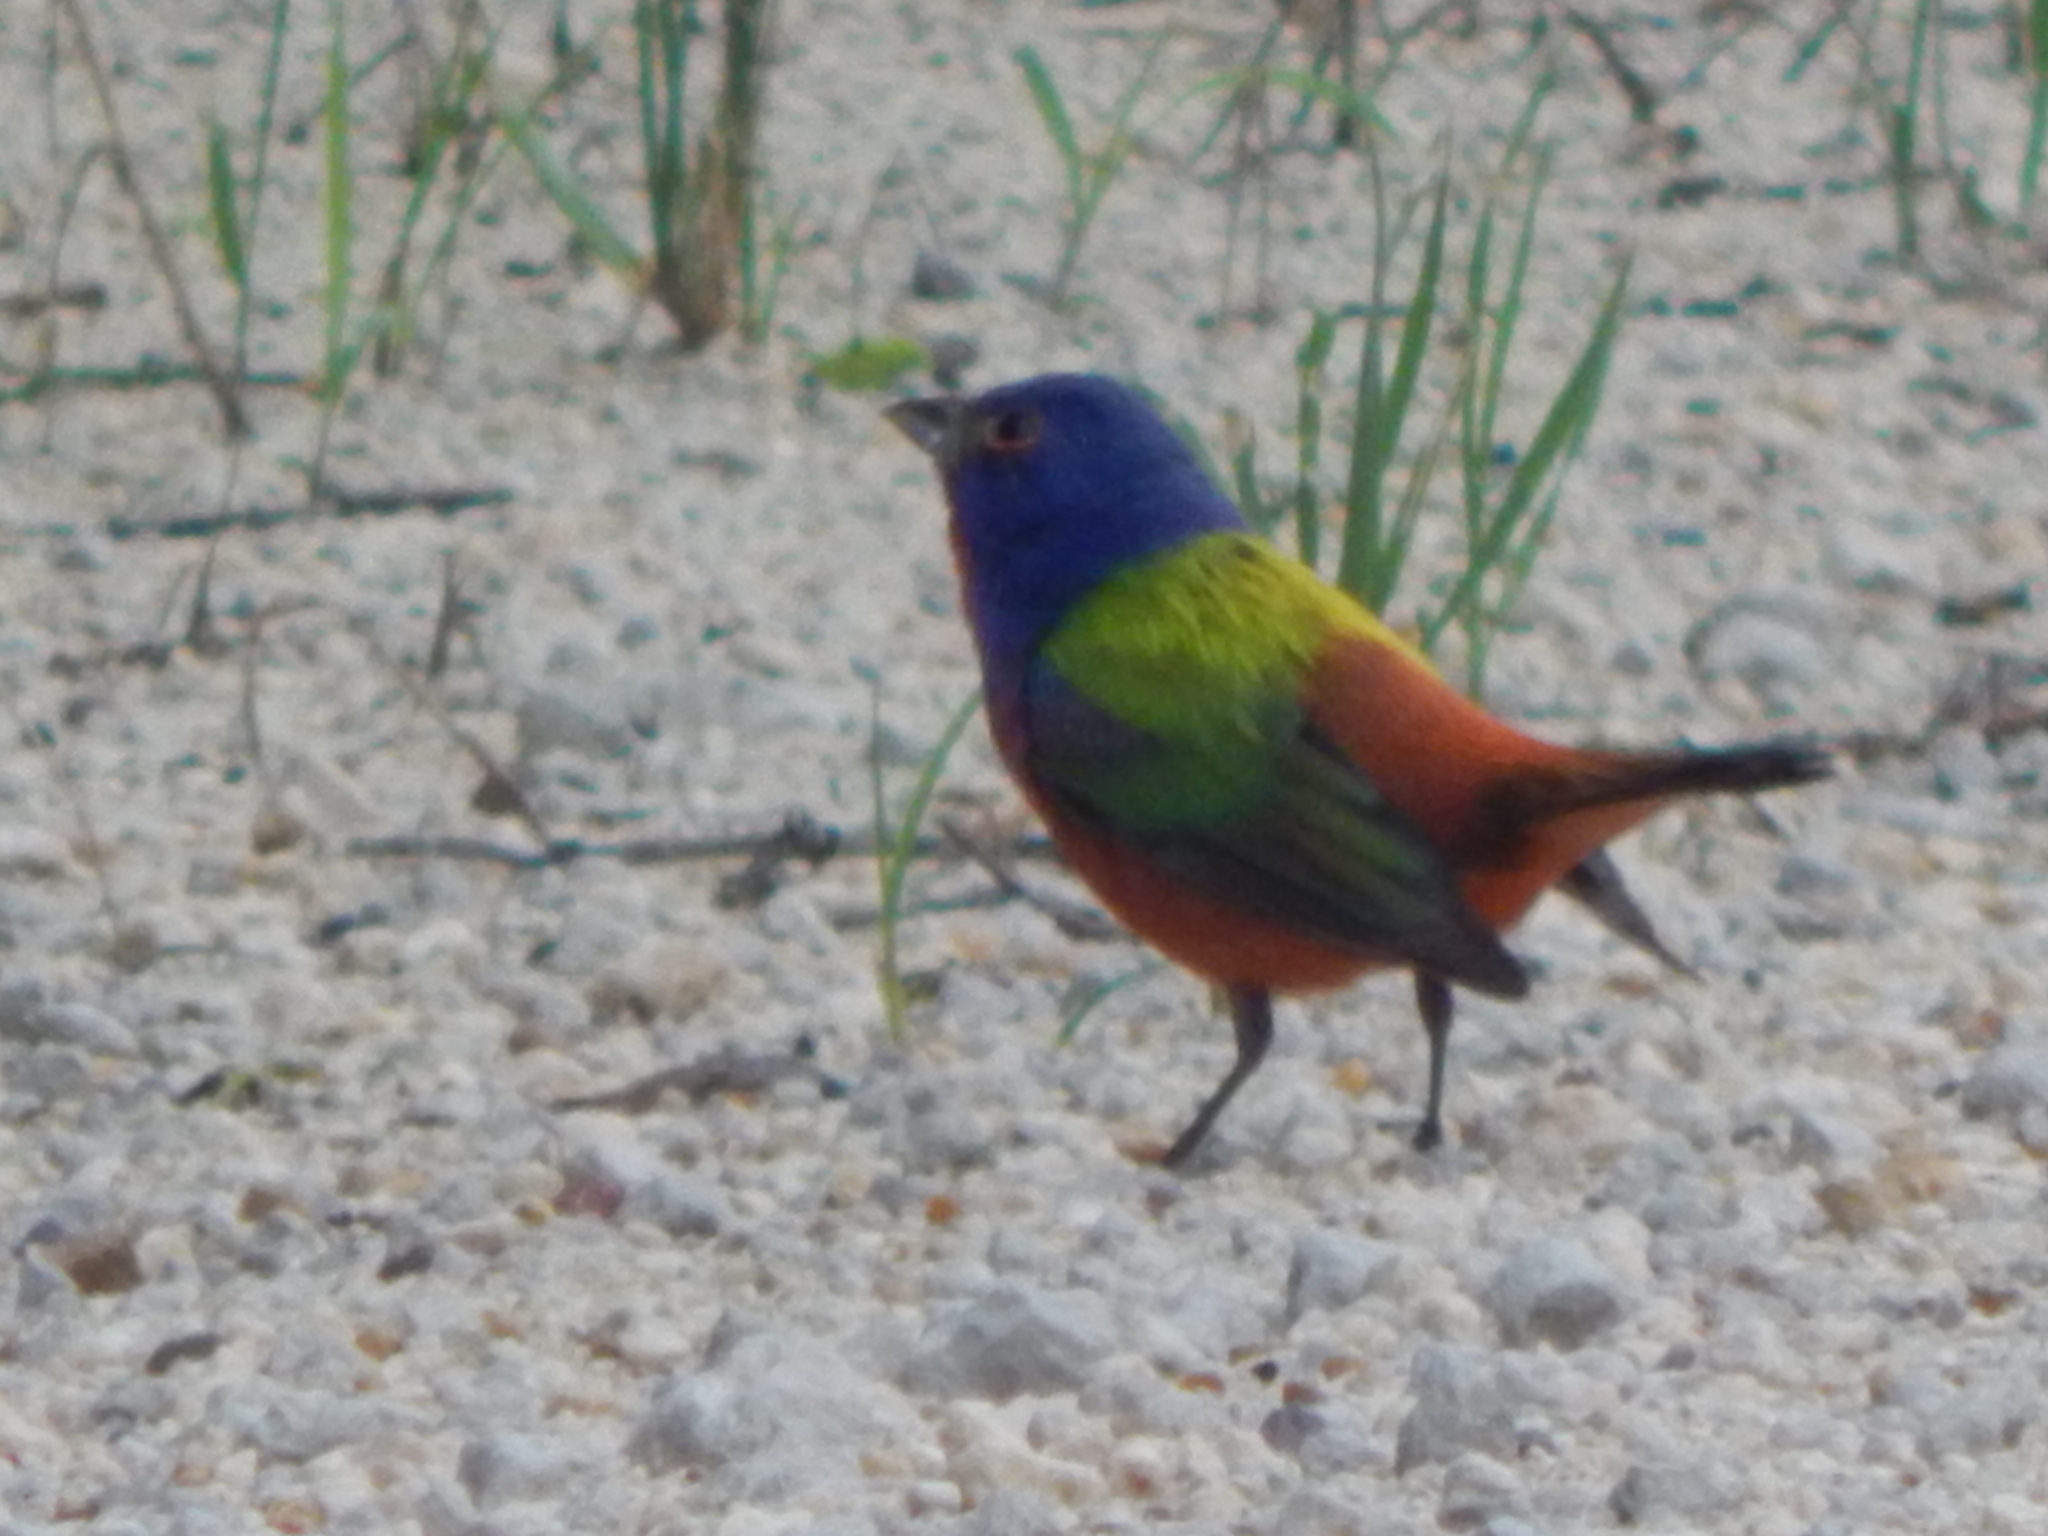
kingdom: Animalia
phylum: Chordata
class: Aves
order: Passeriformes
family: Cardinalidae
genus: Passerina
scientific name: Passerina ciris
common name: Painted bunting
